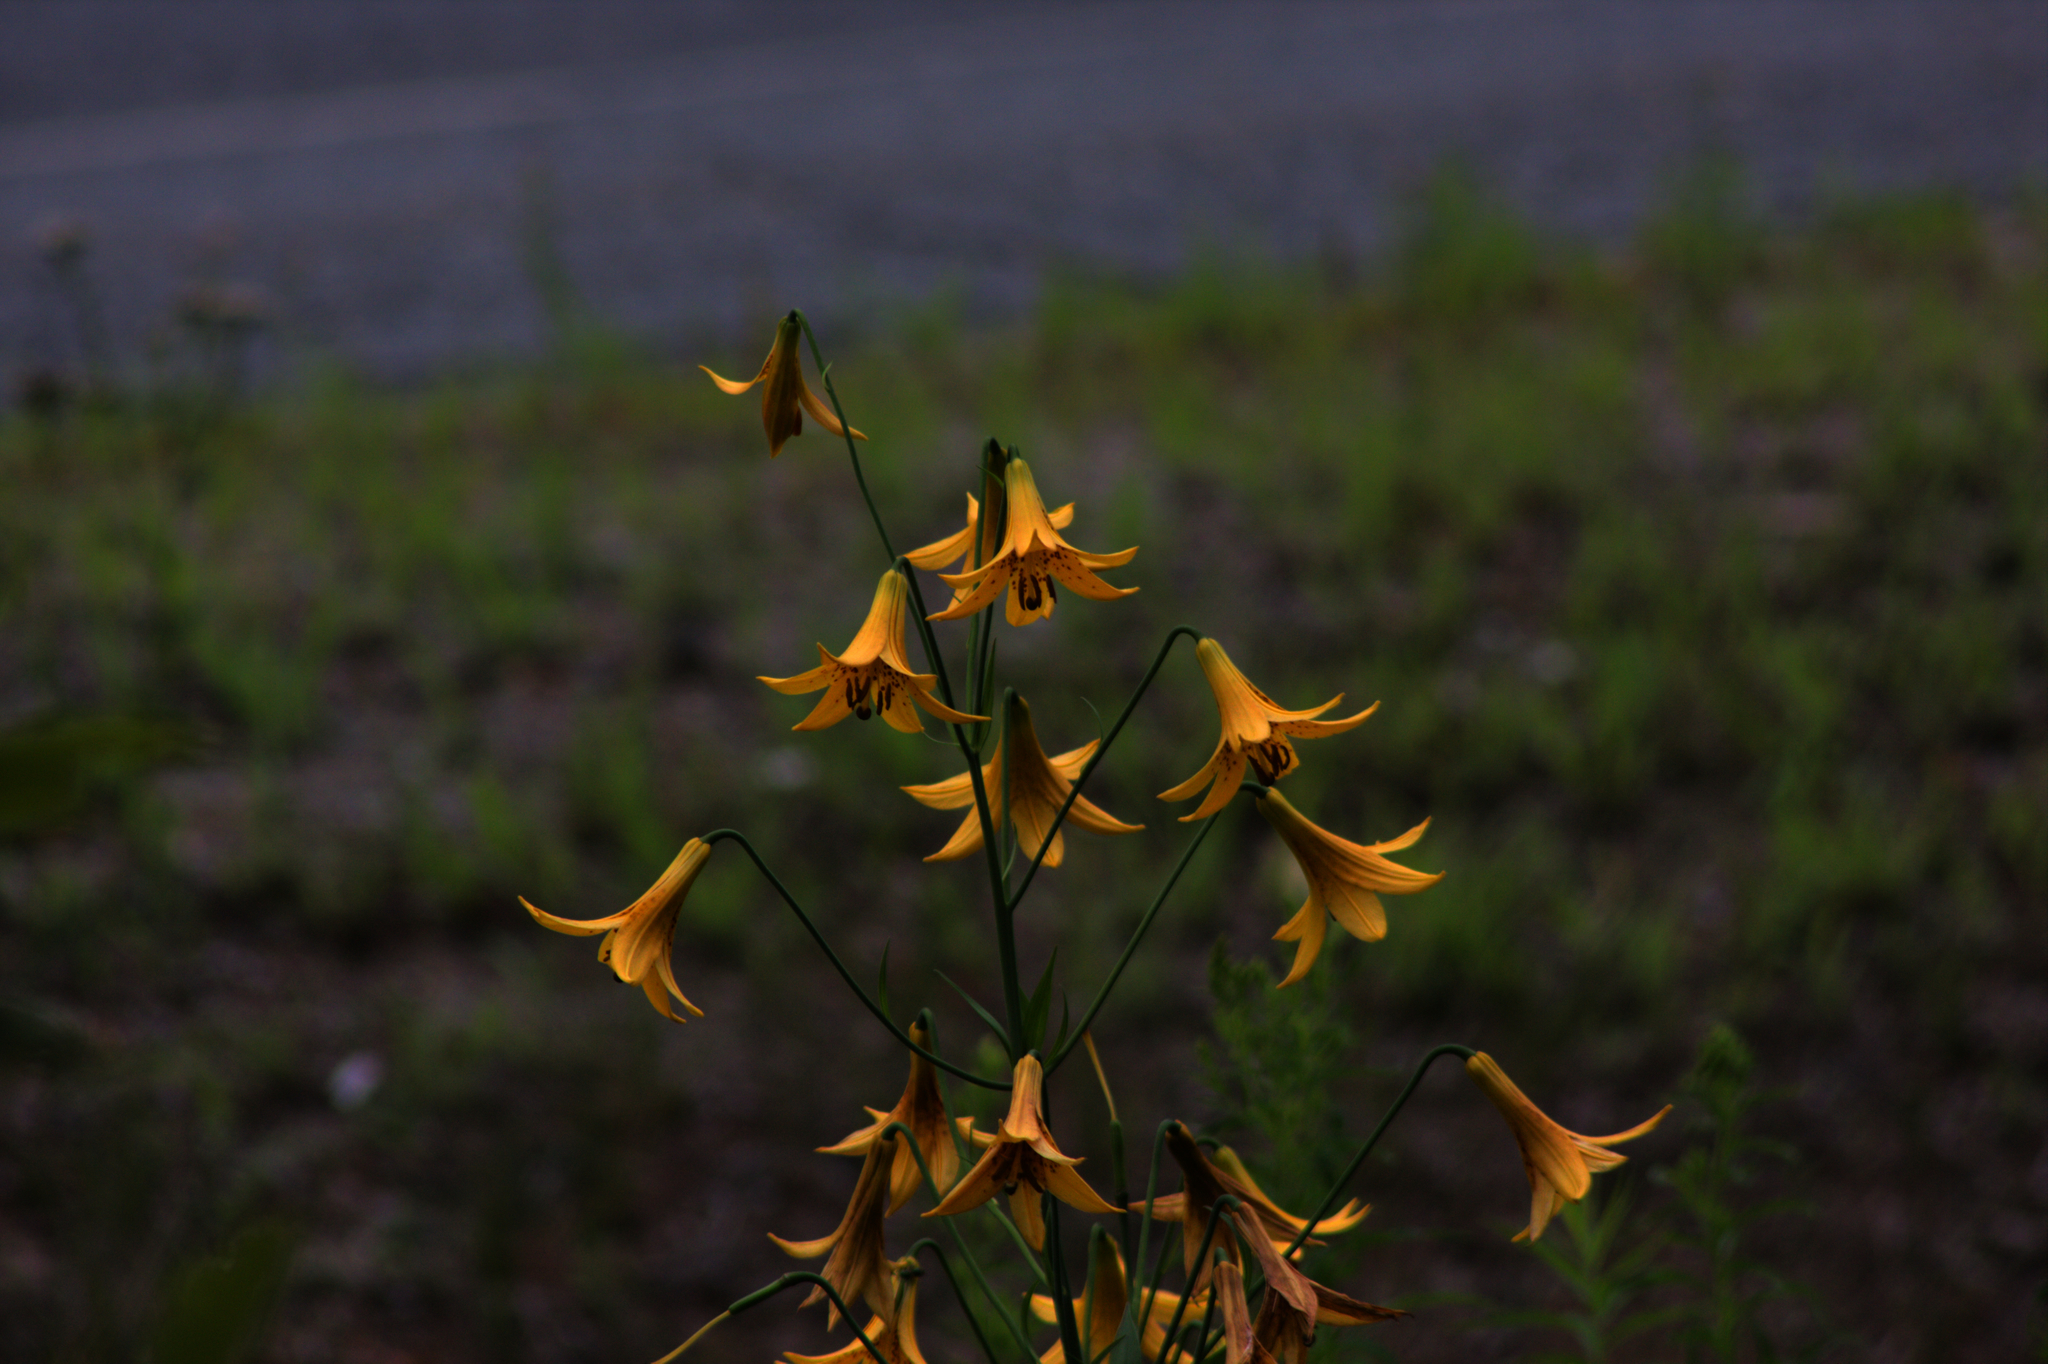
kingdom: Plantae
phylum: Tracheophyta
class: Liliopsida
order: Liliales
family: Liliaceae
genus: Lilium
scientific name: Lilium canadense
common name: Canada lily
